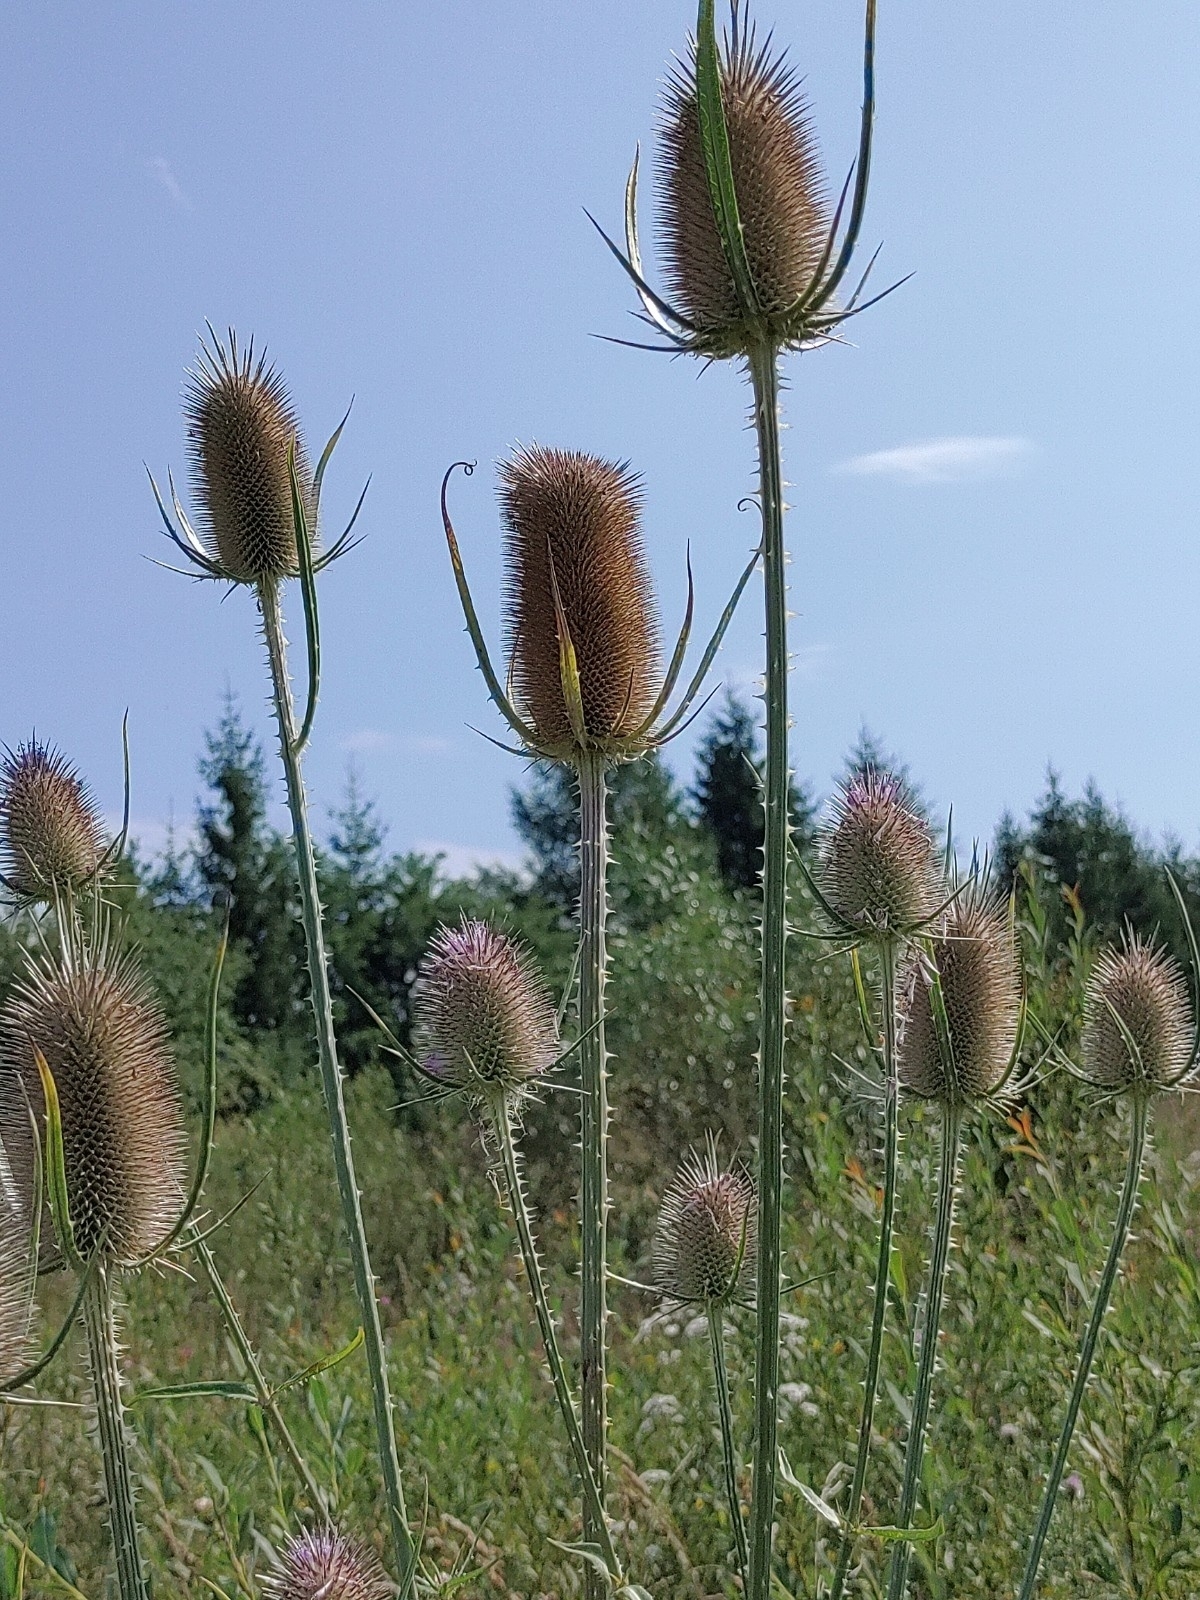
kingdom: Plantae
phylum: Tracheophyta
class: Magnoliopsida
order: Dipsacales
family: Caprifoliaceae
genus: Dipsacus
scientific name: Dipsacus fullonum
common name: Teasel
